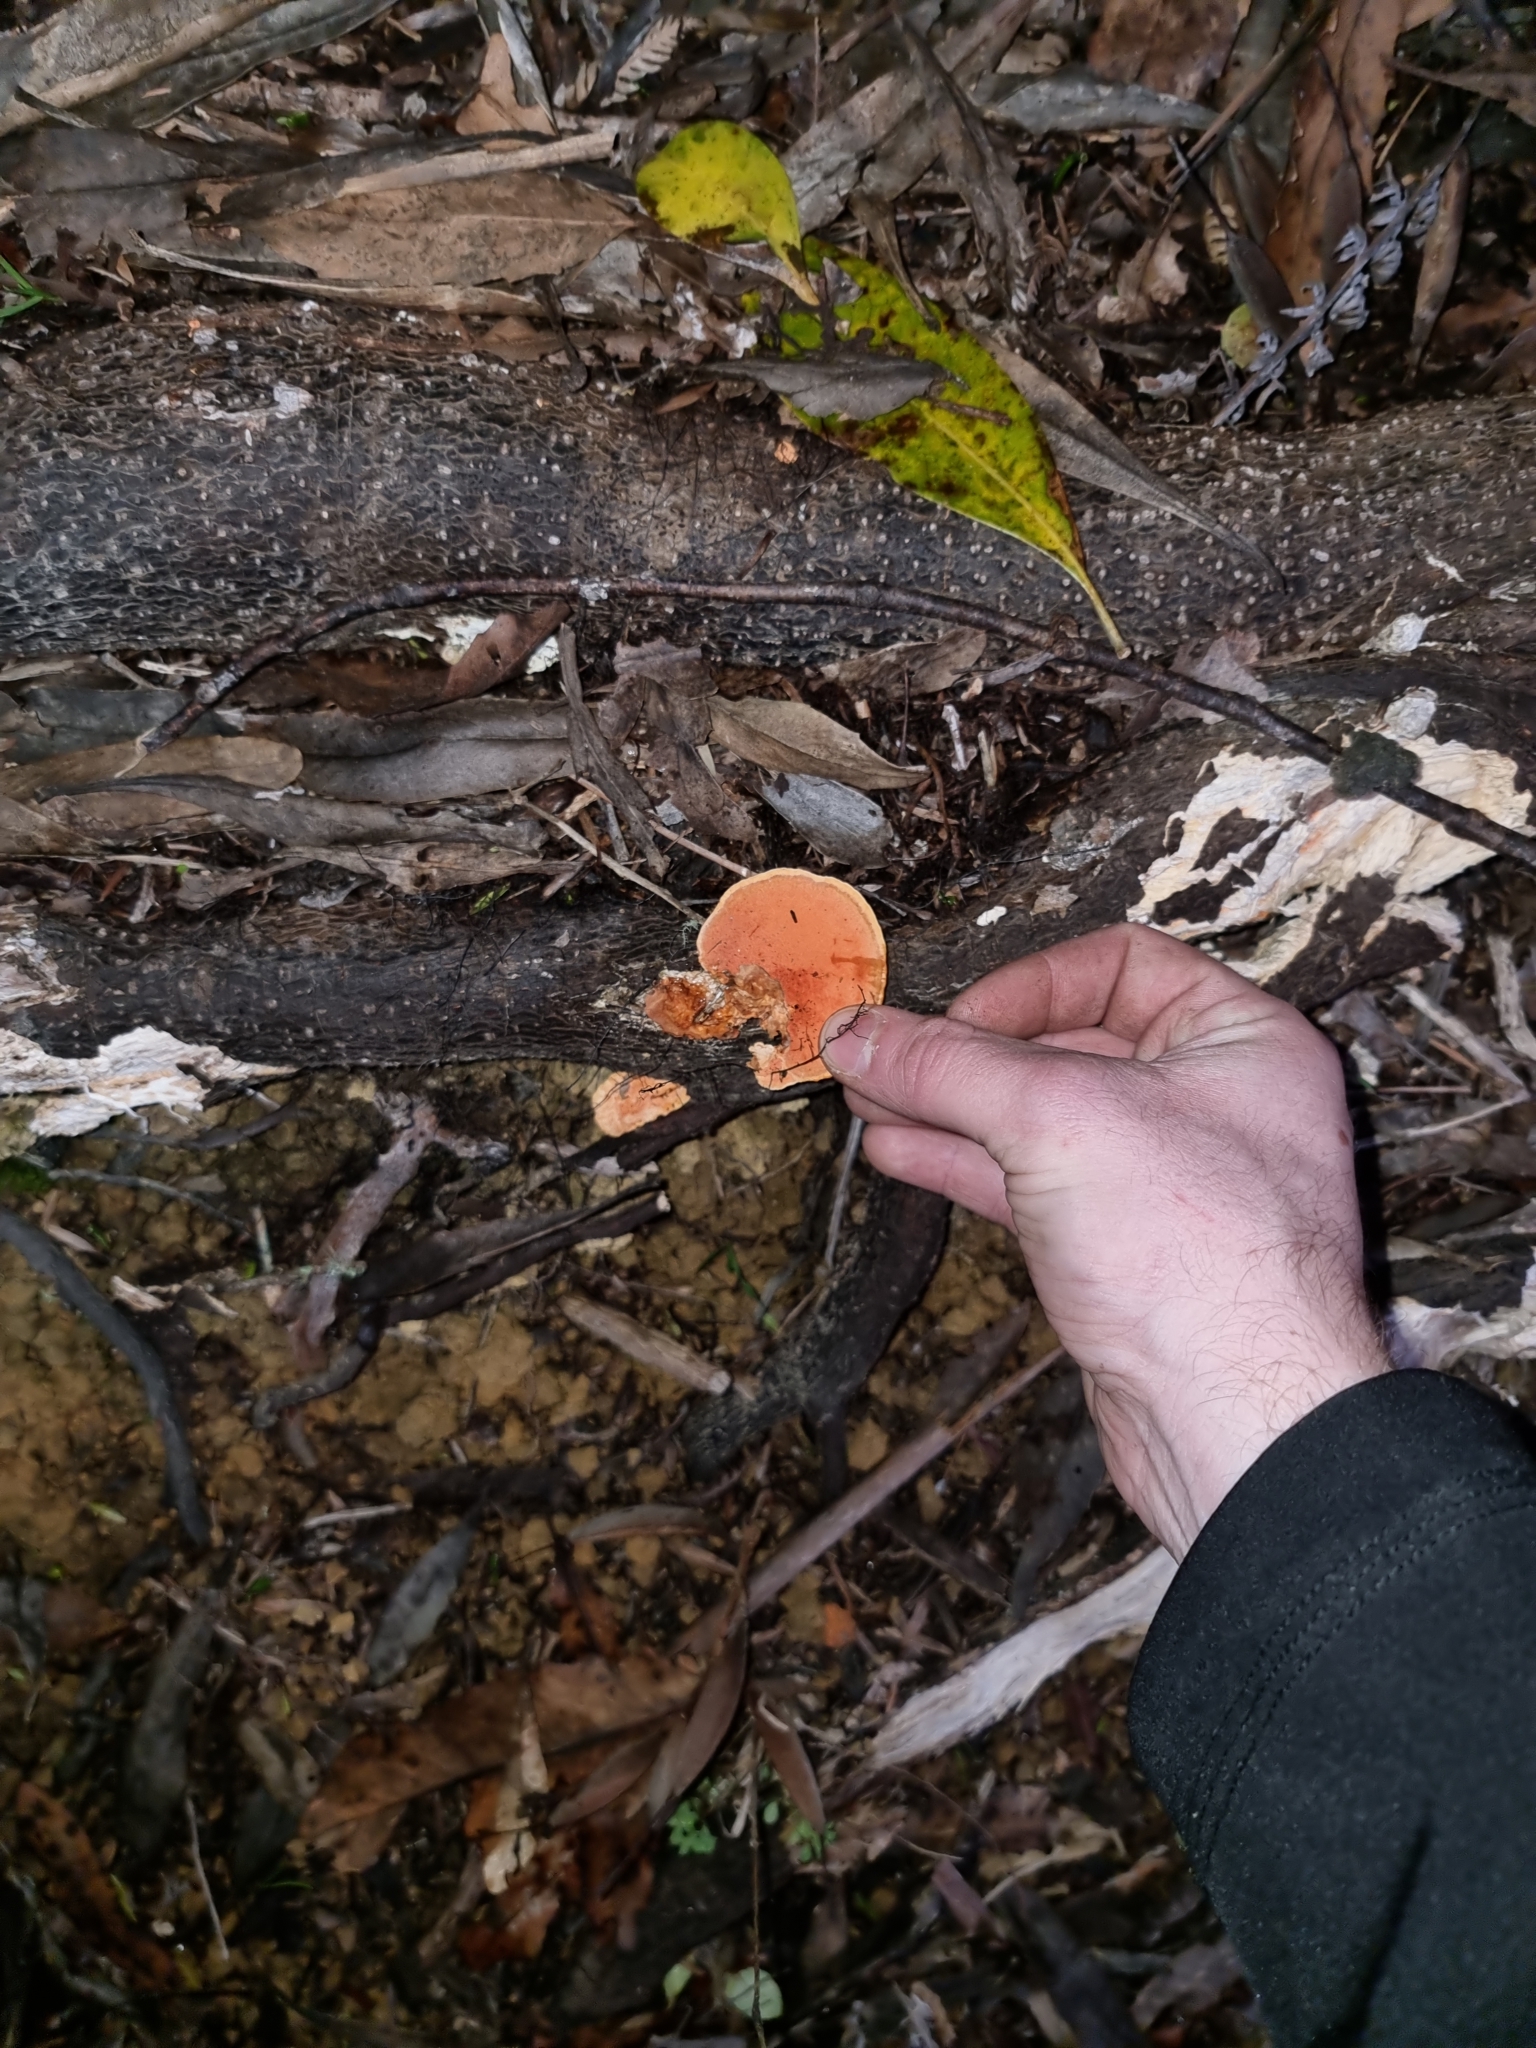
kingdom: Fungi
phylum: Basidiomycota
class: Agaricomycetes
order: Polyporales
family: Polyporaceae
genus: Trametes
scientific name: Trametes coccinea
